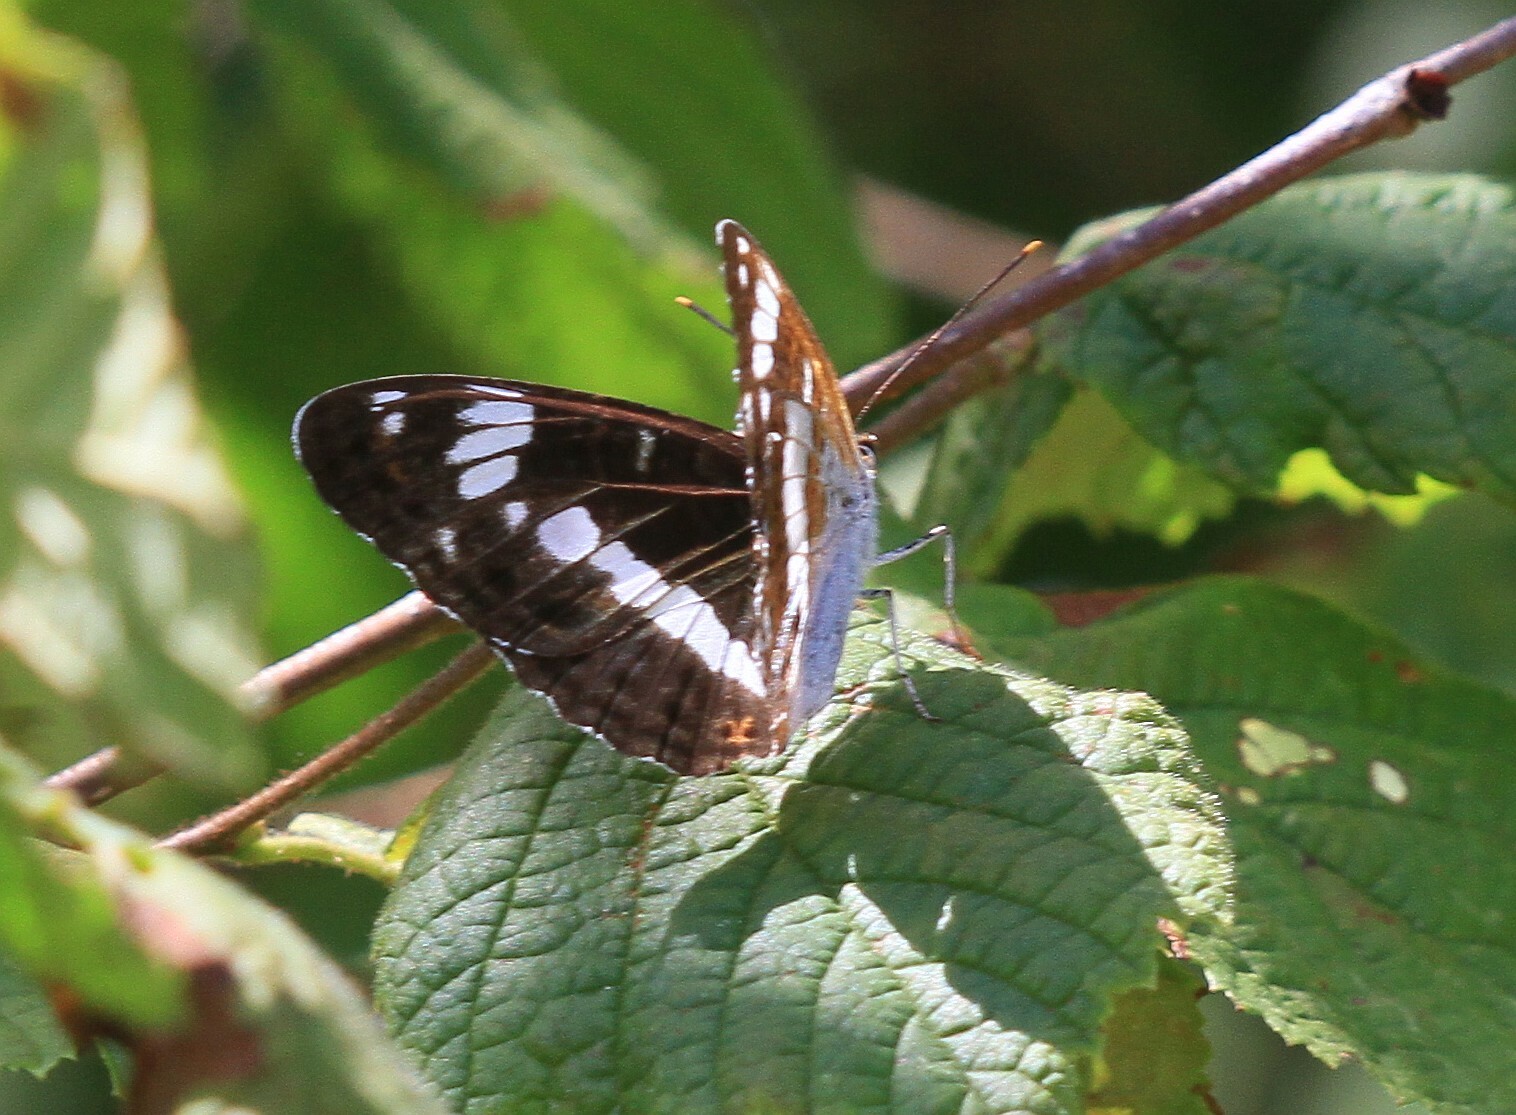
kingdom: Animalia
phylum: Arthropoda
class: Insecta
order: Lepidoptera
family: Nymphalidae
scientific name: Nymphalidae
